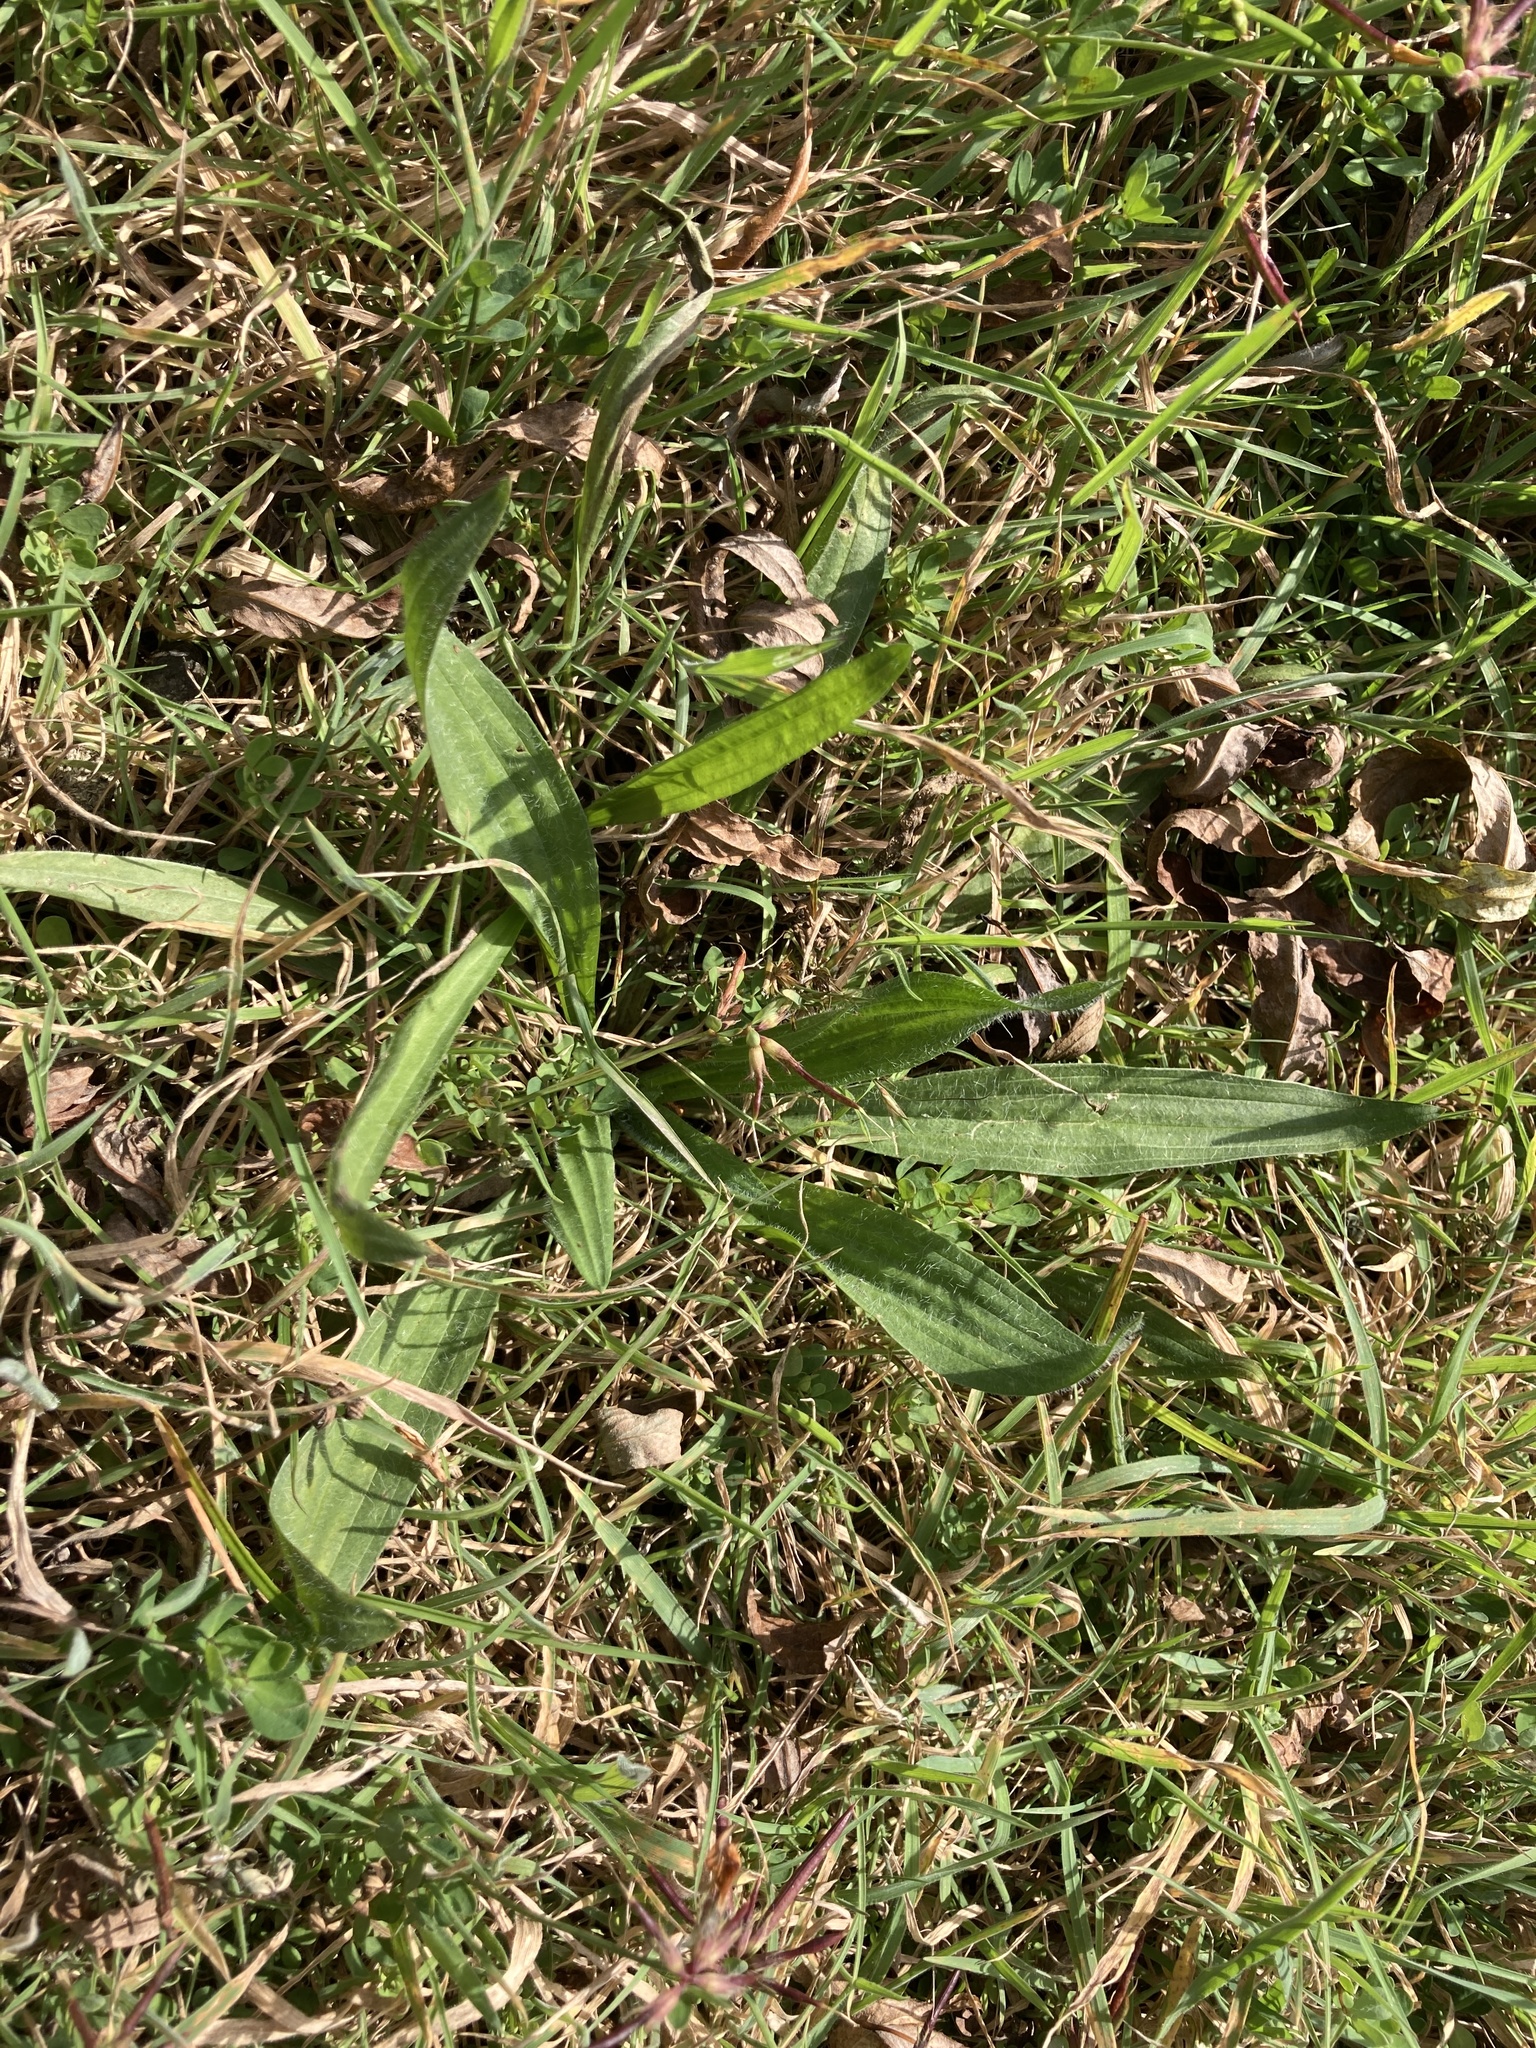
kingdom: Plantae
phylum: Tracheophyta
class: Magnoliopsida
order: Lamiales
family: Plantaginaceae
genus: Plantago
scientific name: Plantago lanceolata
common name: Ribwort plantain
